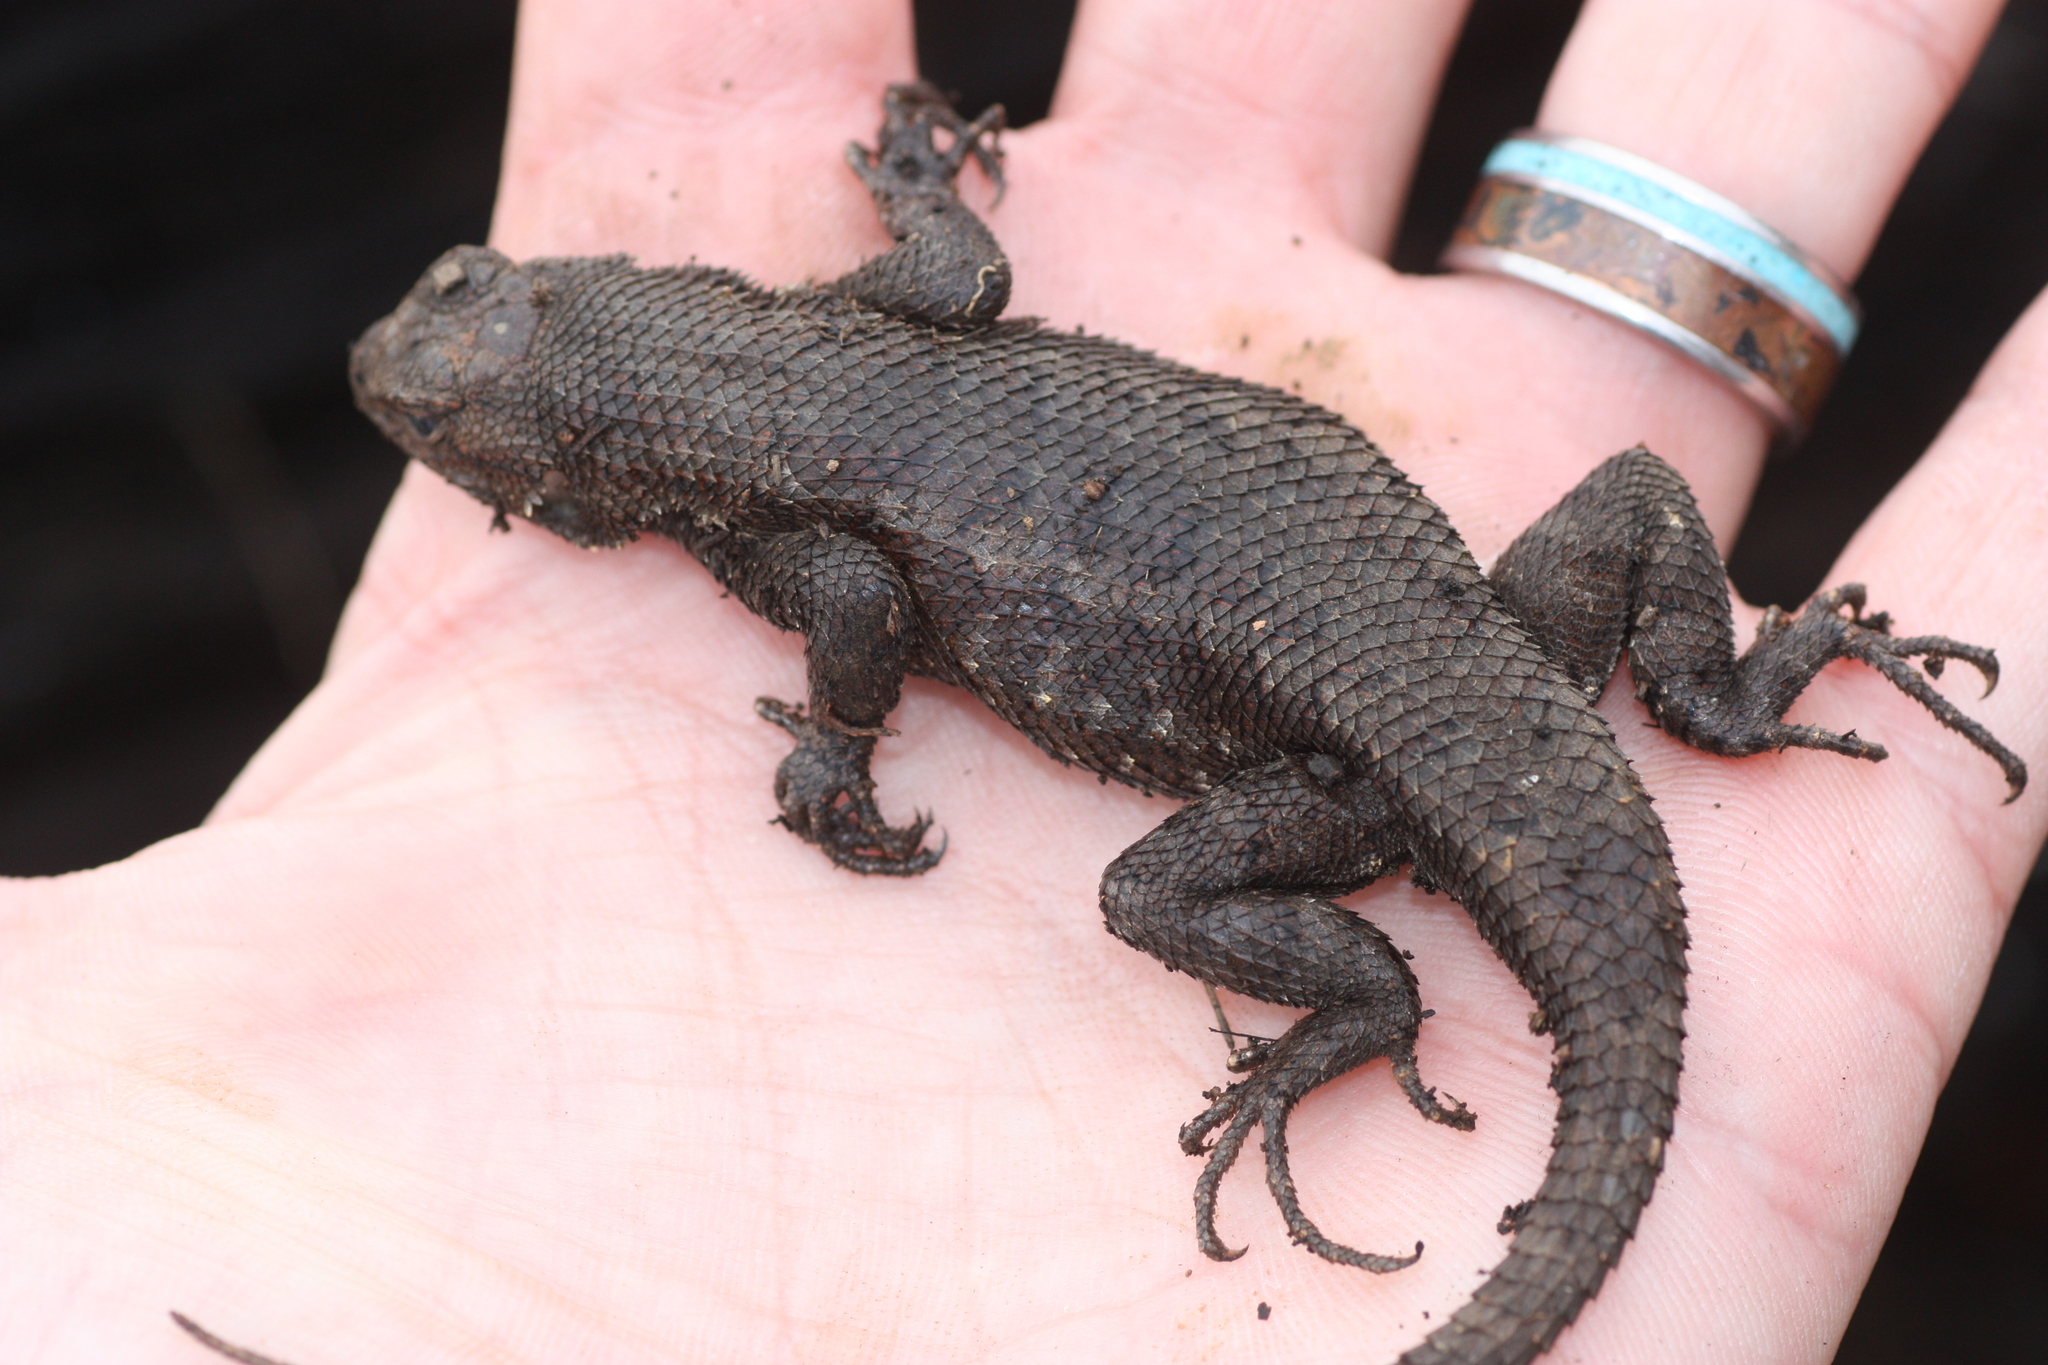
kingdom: Animalia
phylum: Chordata
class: Squamata
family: Phrynosomatidae
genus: Sceloporus
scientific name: Sceloporus occidentalis
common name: Western fence lizard
